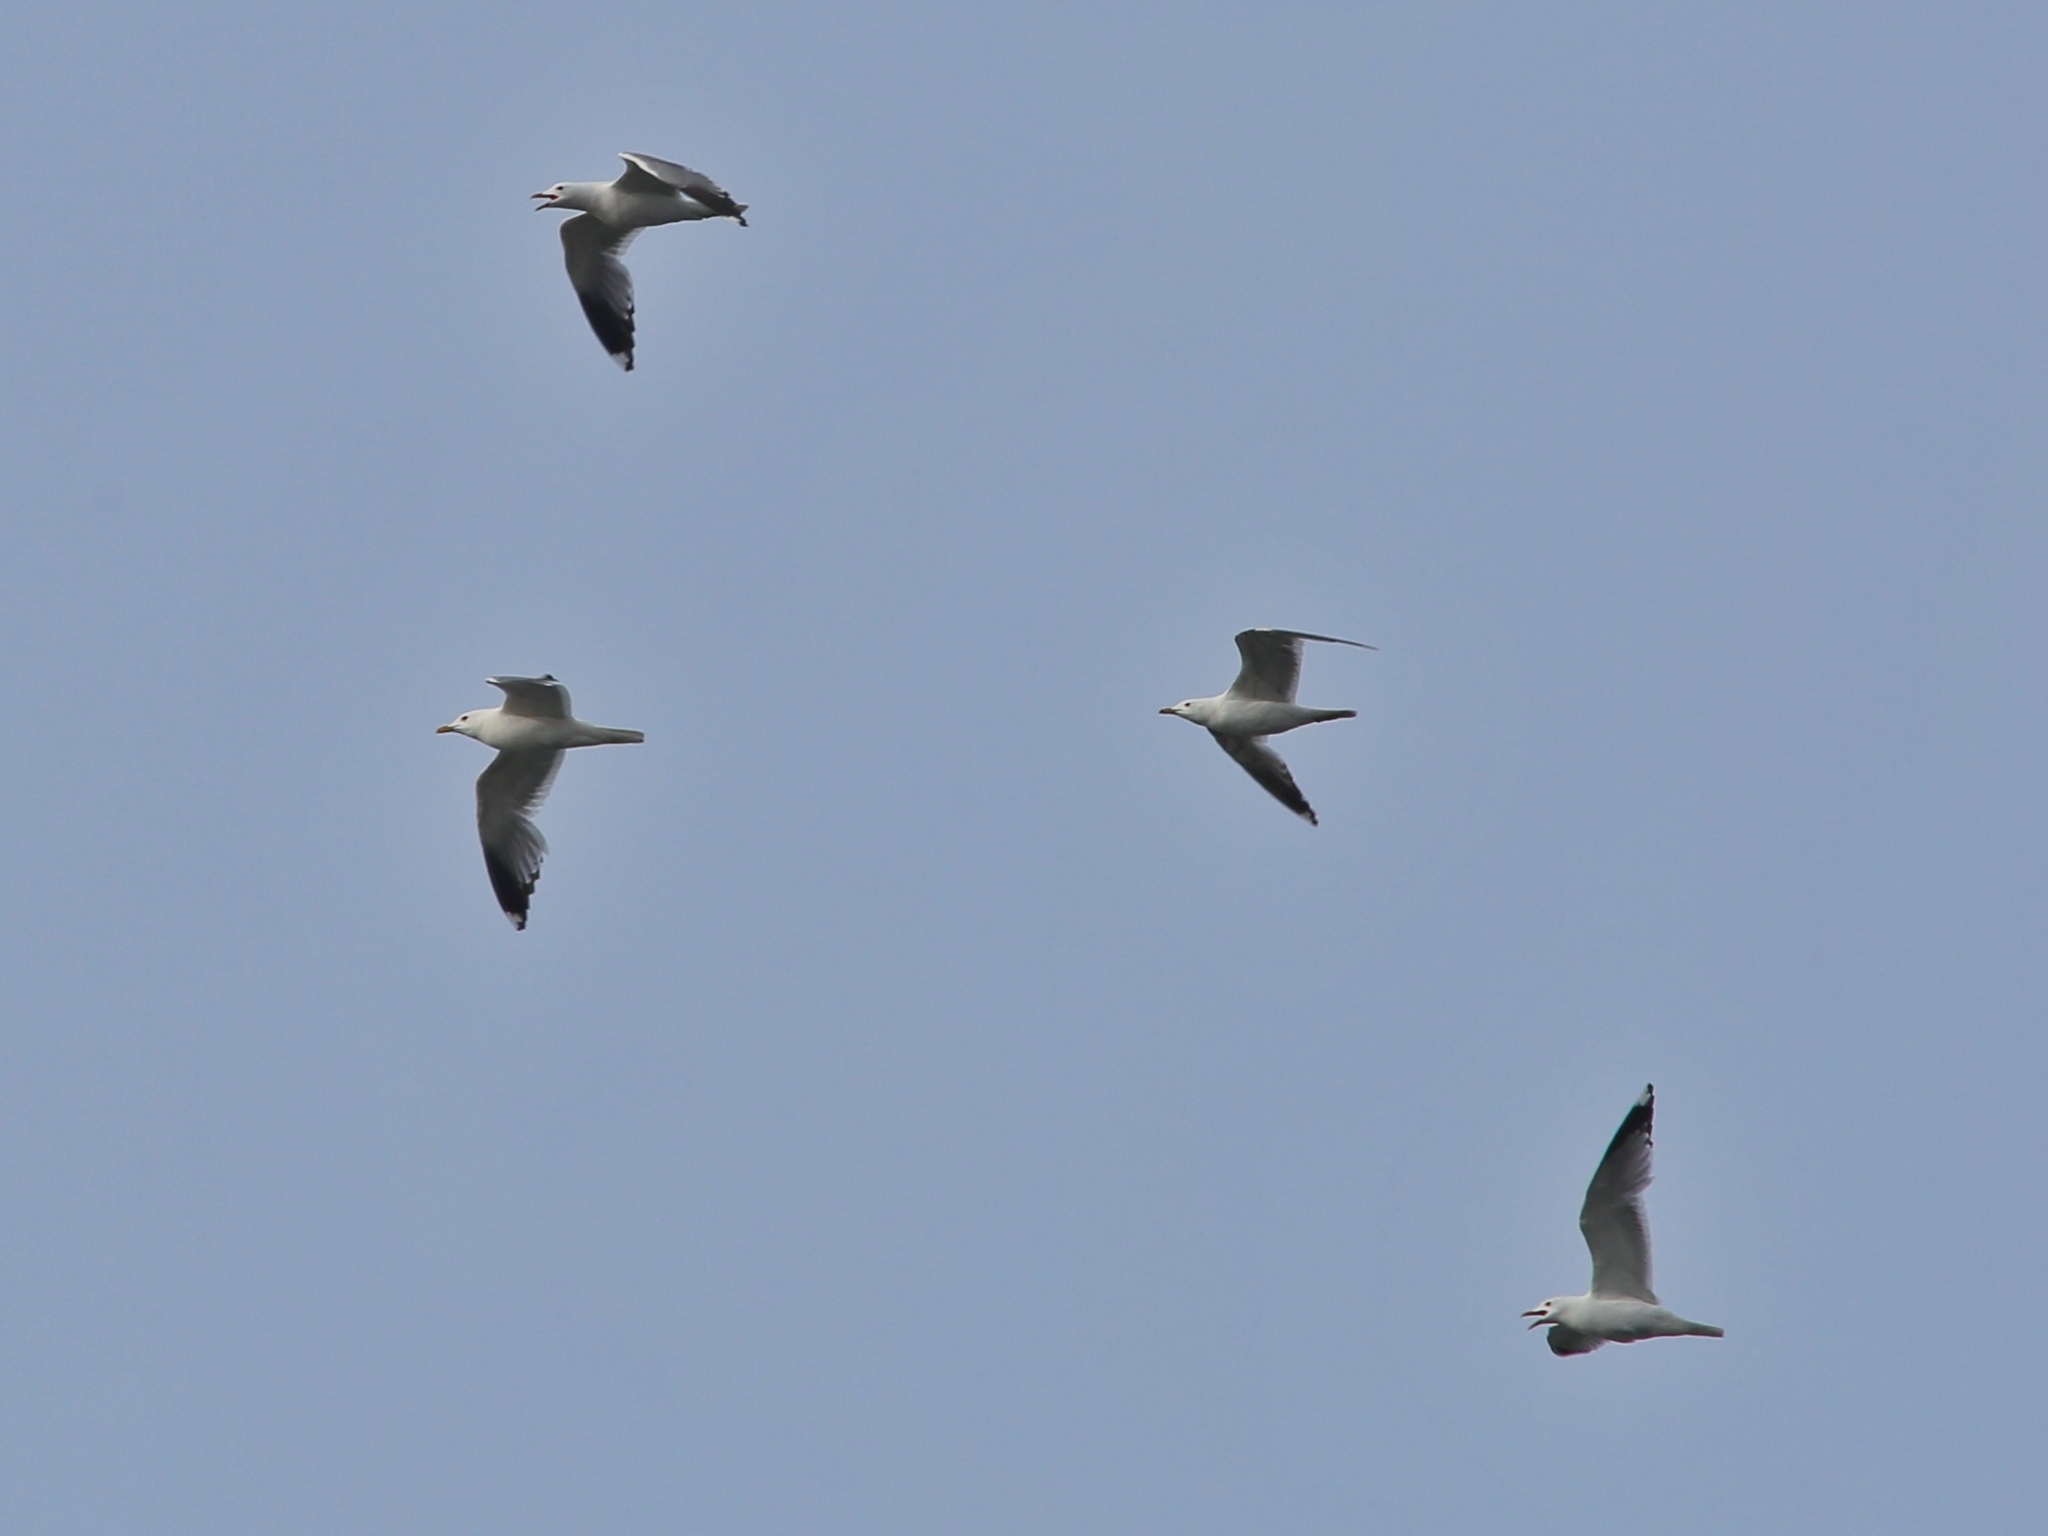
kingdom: Animalia
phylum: Chordata
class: Aves
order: Charadriiformes
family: Laridae
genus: Larus
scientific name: Larus canus
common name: Mew gull
